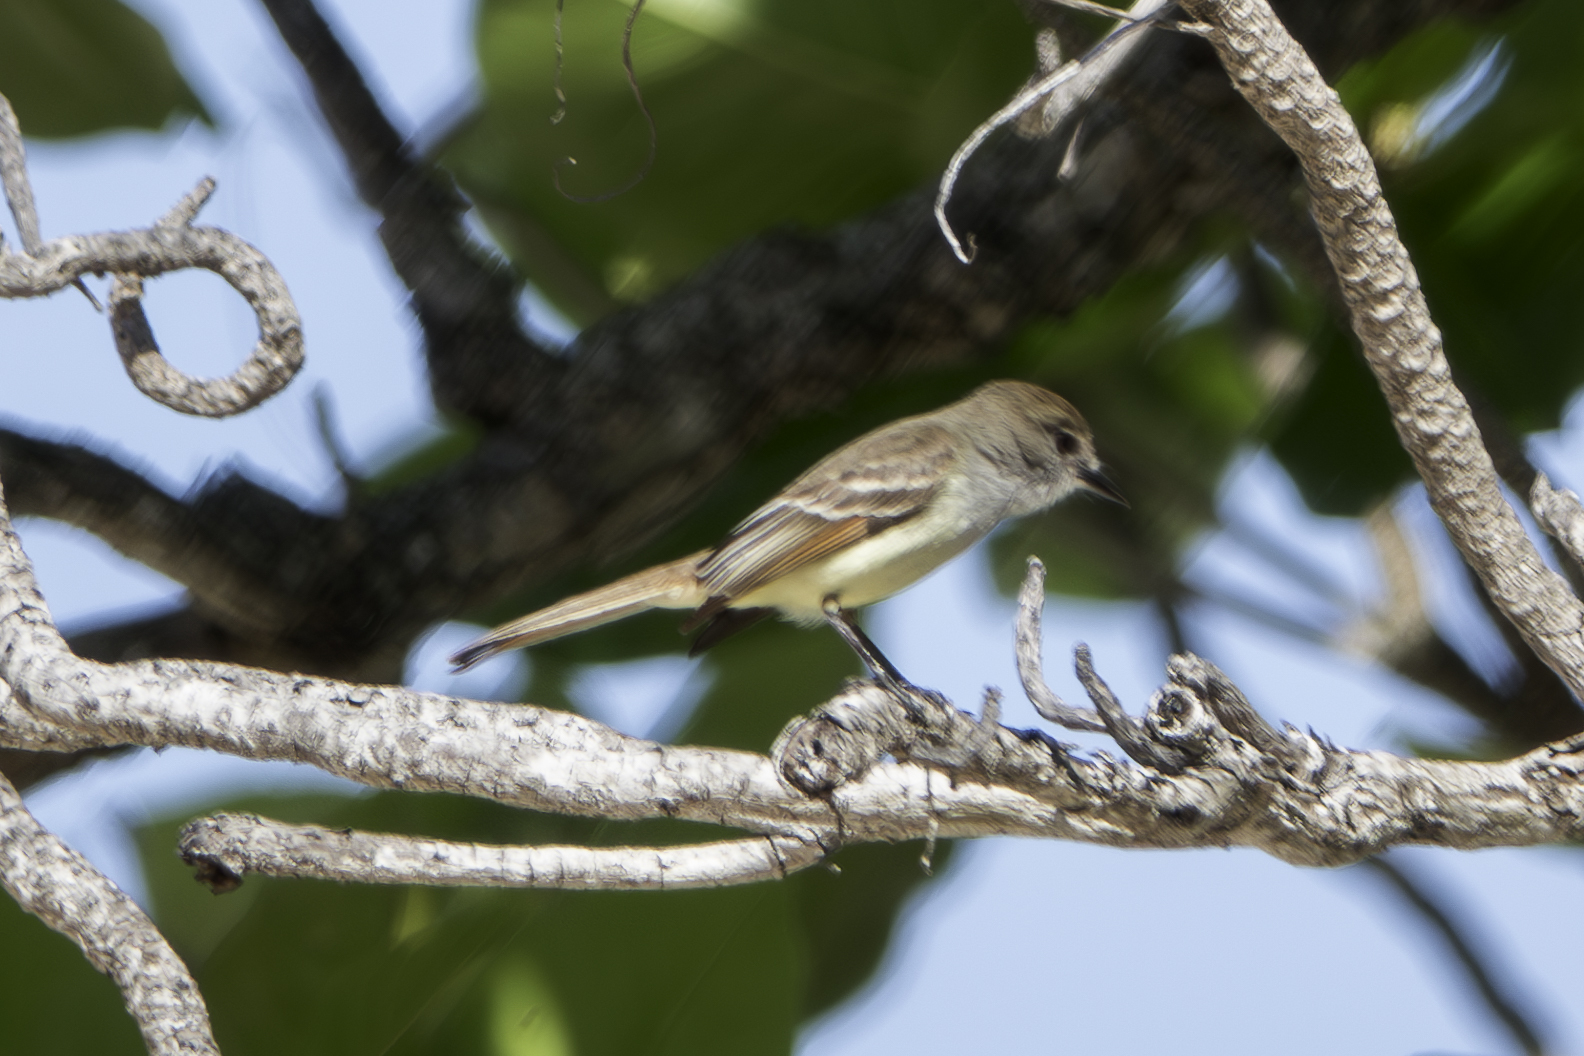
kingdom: Animalia
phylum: Chordata
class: Aves
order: Passeriformes
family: Tyrannidae
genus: Myiarchus
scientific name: Myiarchus stolidus
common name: Stolid flycatcher
